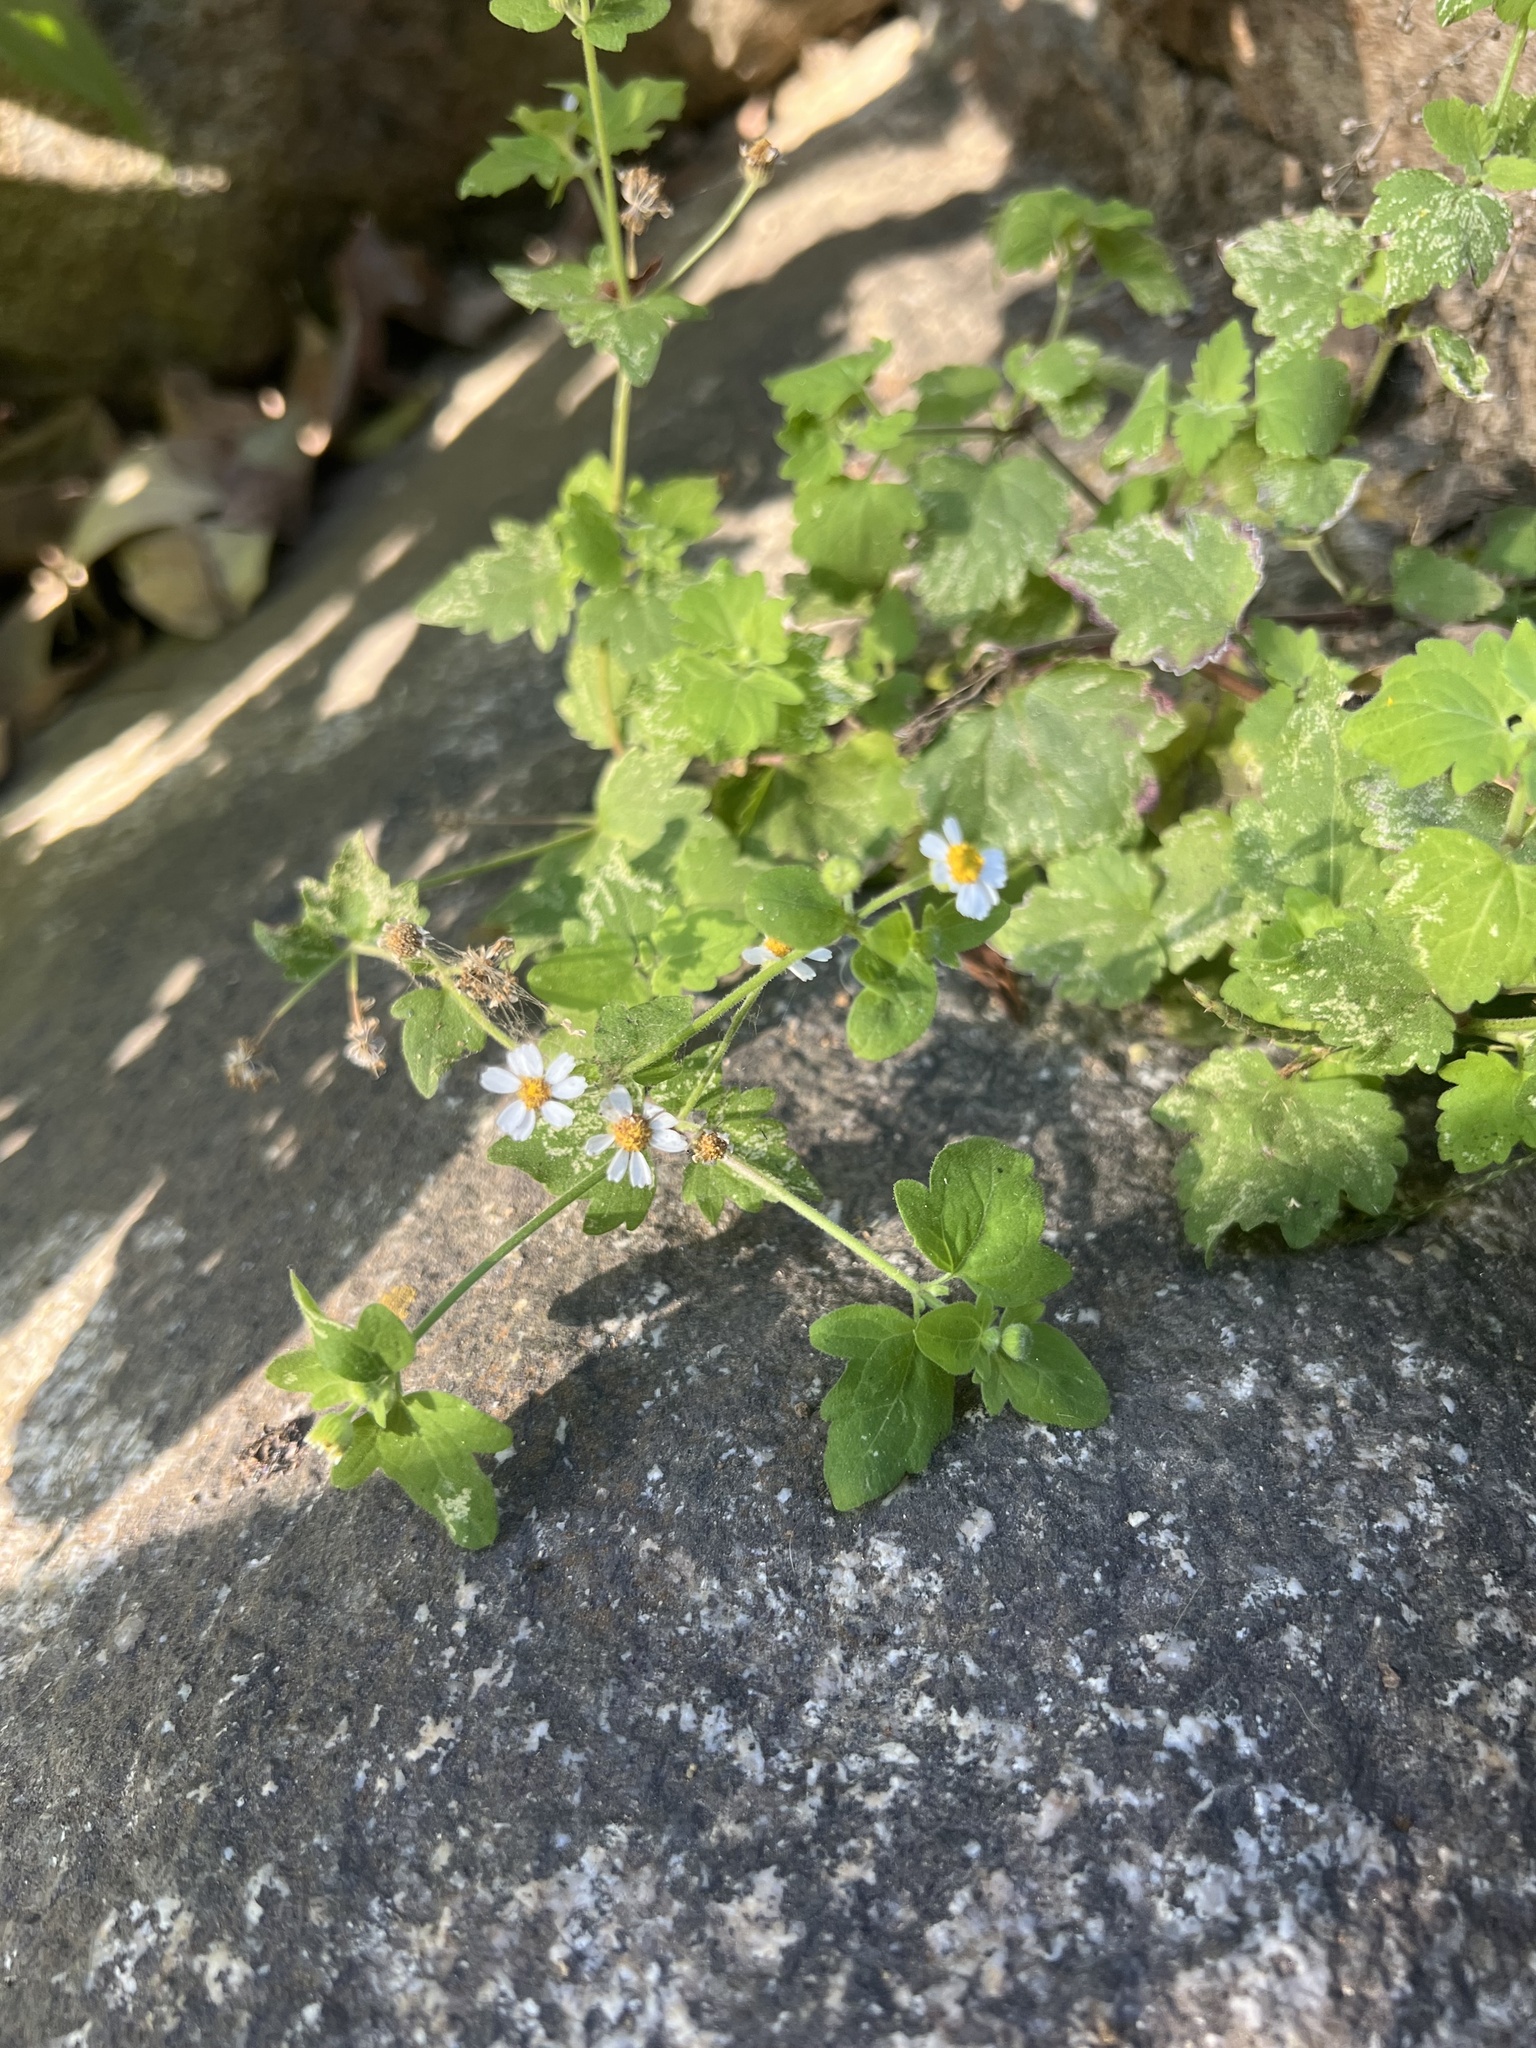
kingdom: Plantae
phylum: Tracheophyta
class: Magnoliopsida
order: Asterales
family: Asteraceae
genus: Galinsogeopsis
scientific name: Galinsogeopsis spilanthoides
